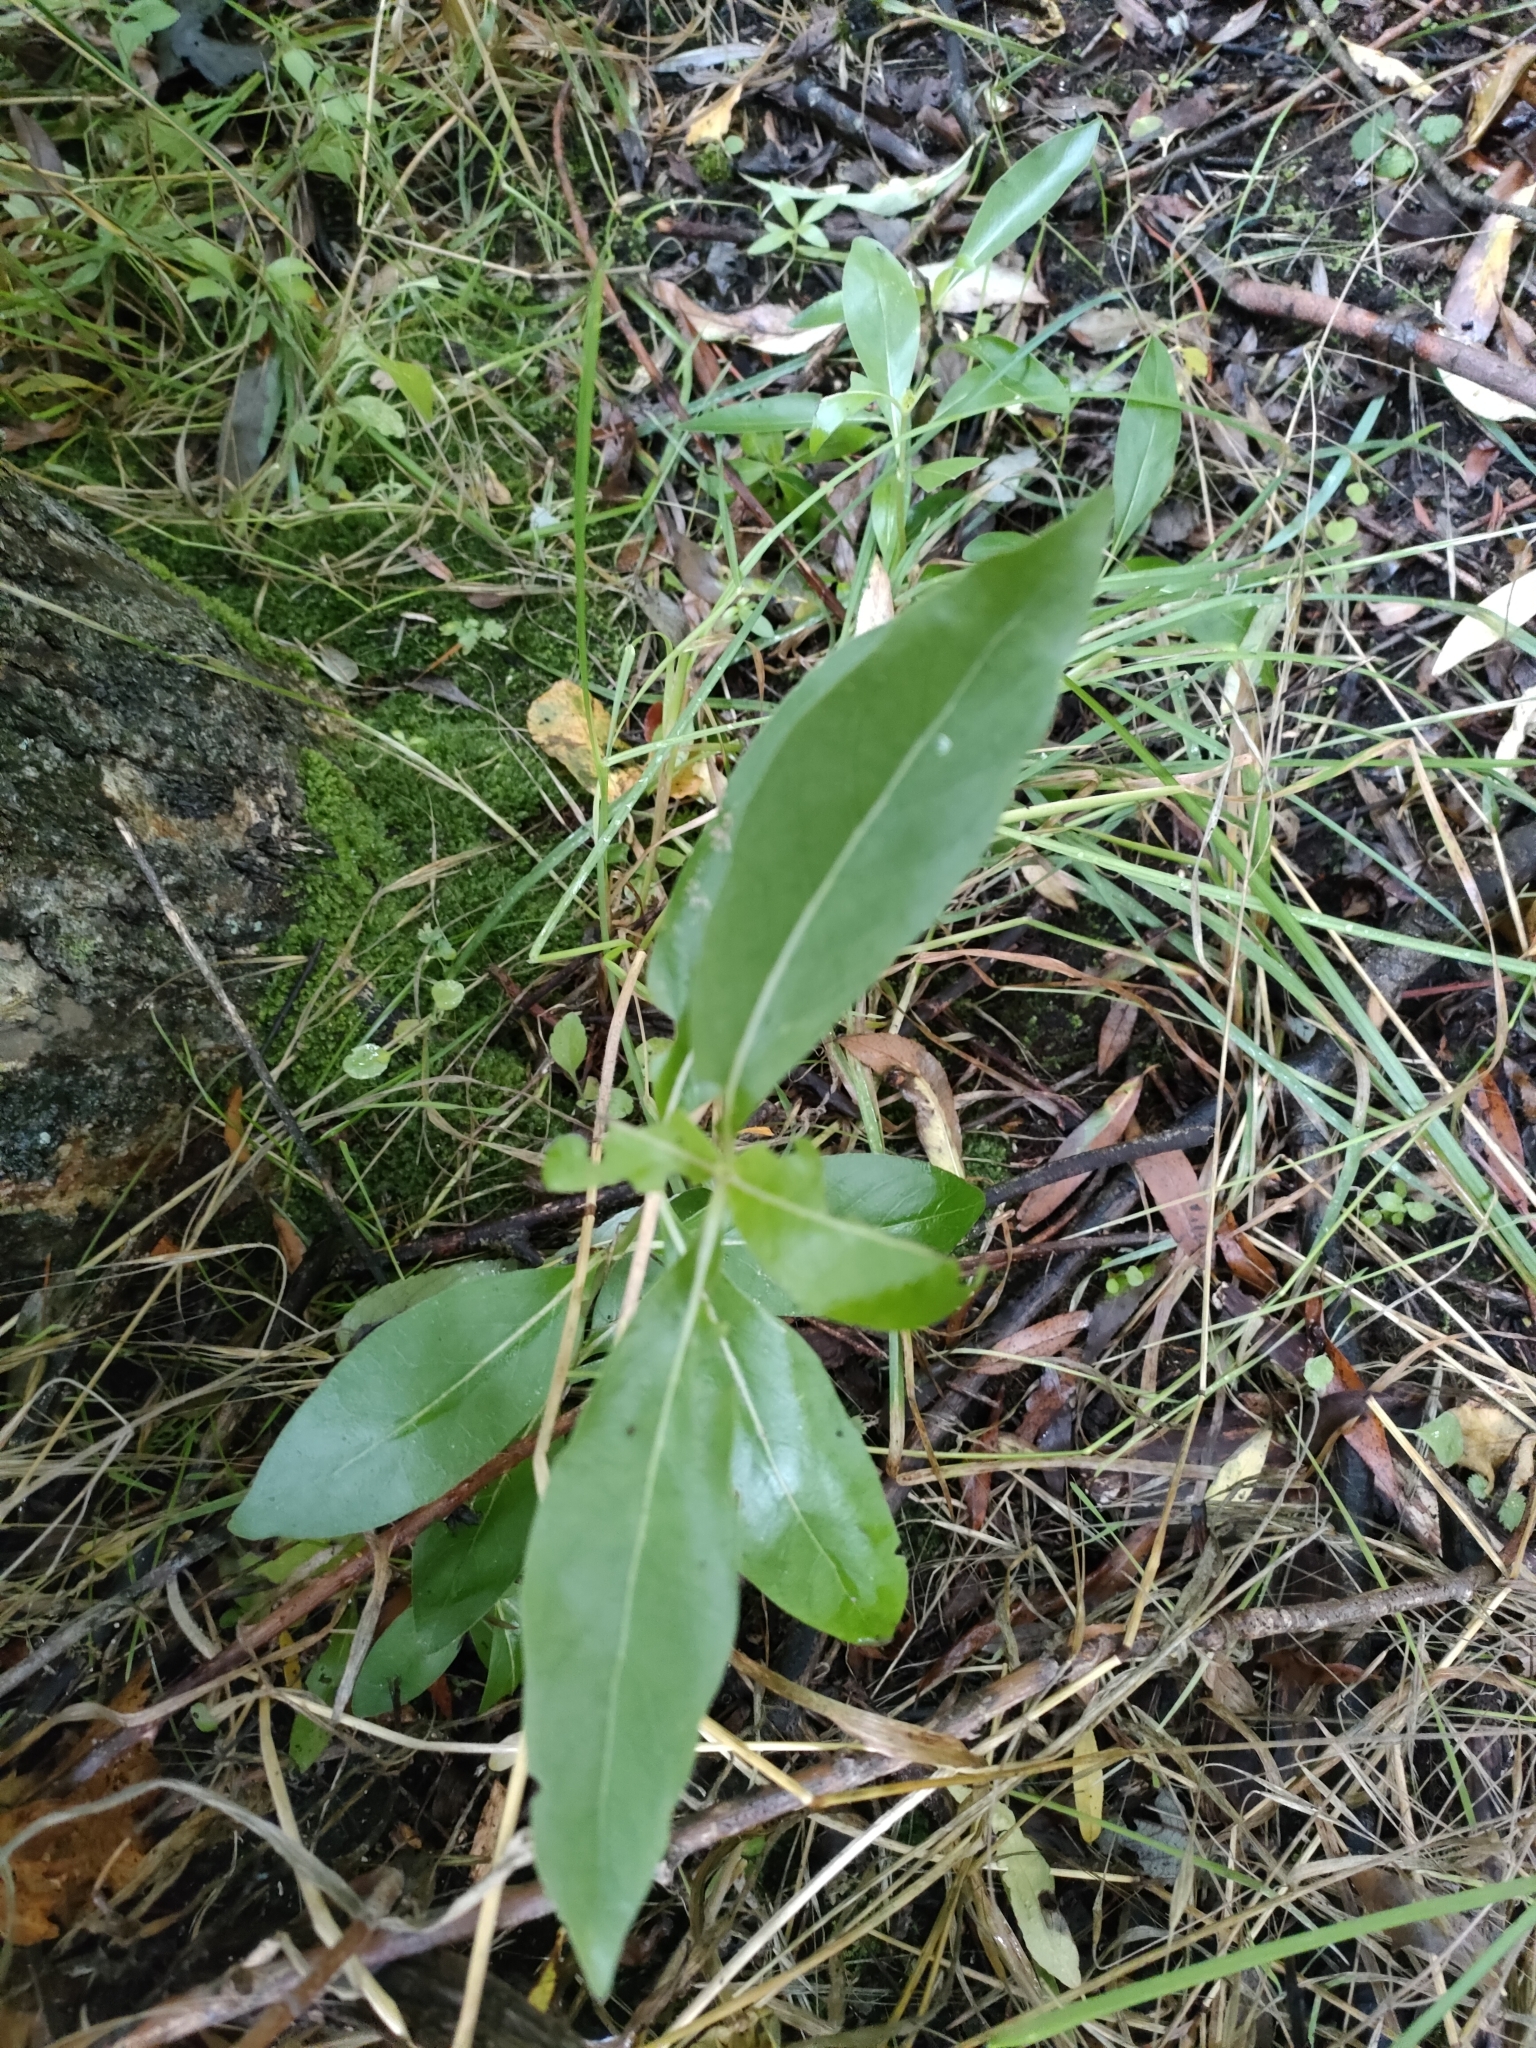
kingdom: Plantae
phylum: Tracheophyta
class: Magnoliopsida
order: Gentianales
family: Rubiaceae
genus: Coprosma
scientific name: Coprosma robusta
